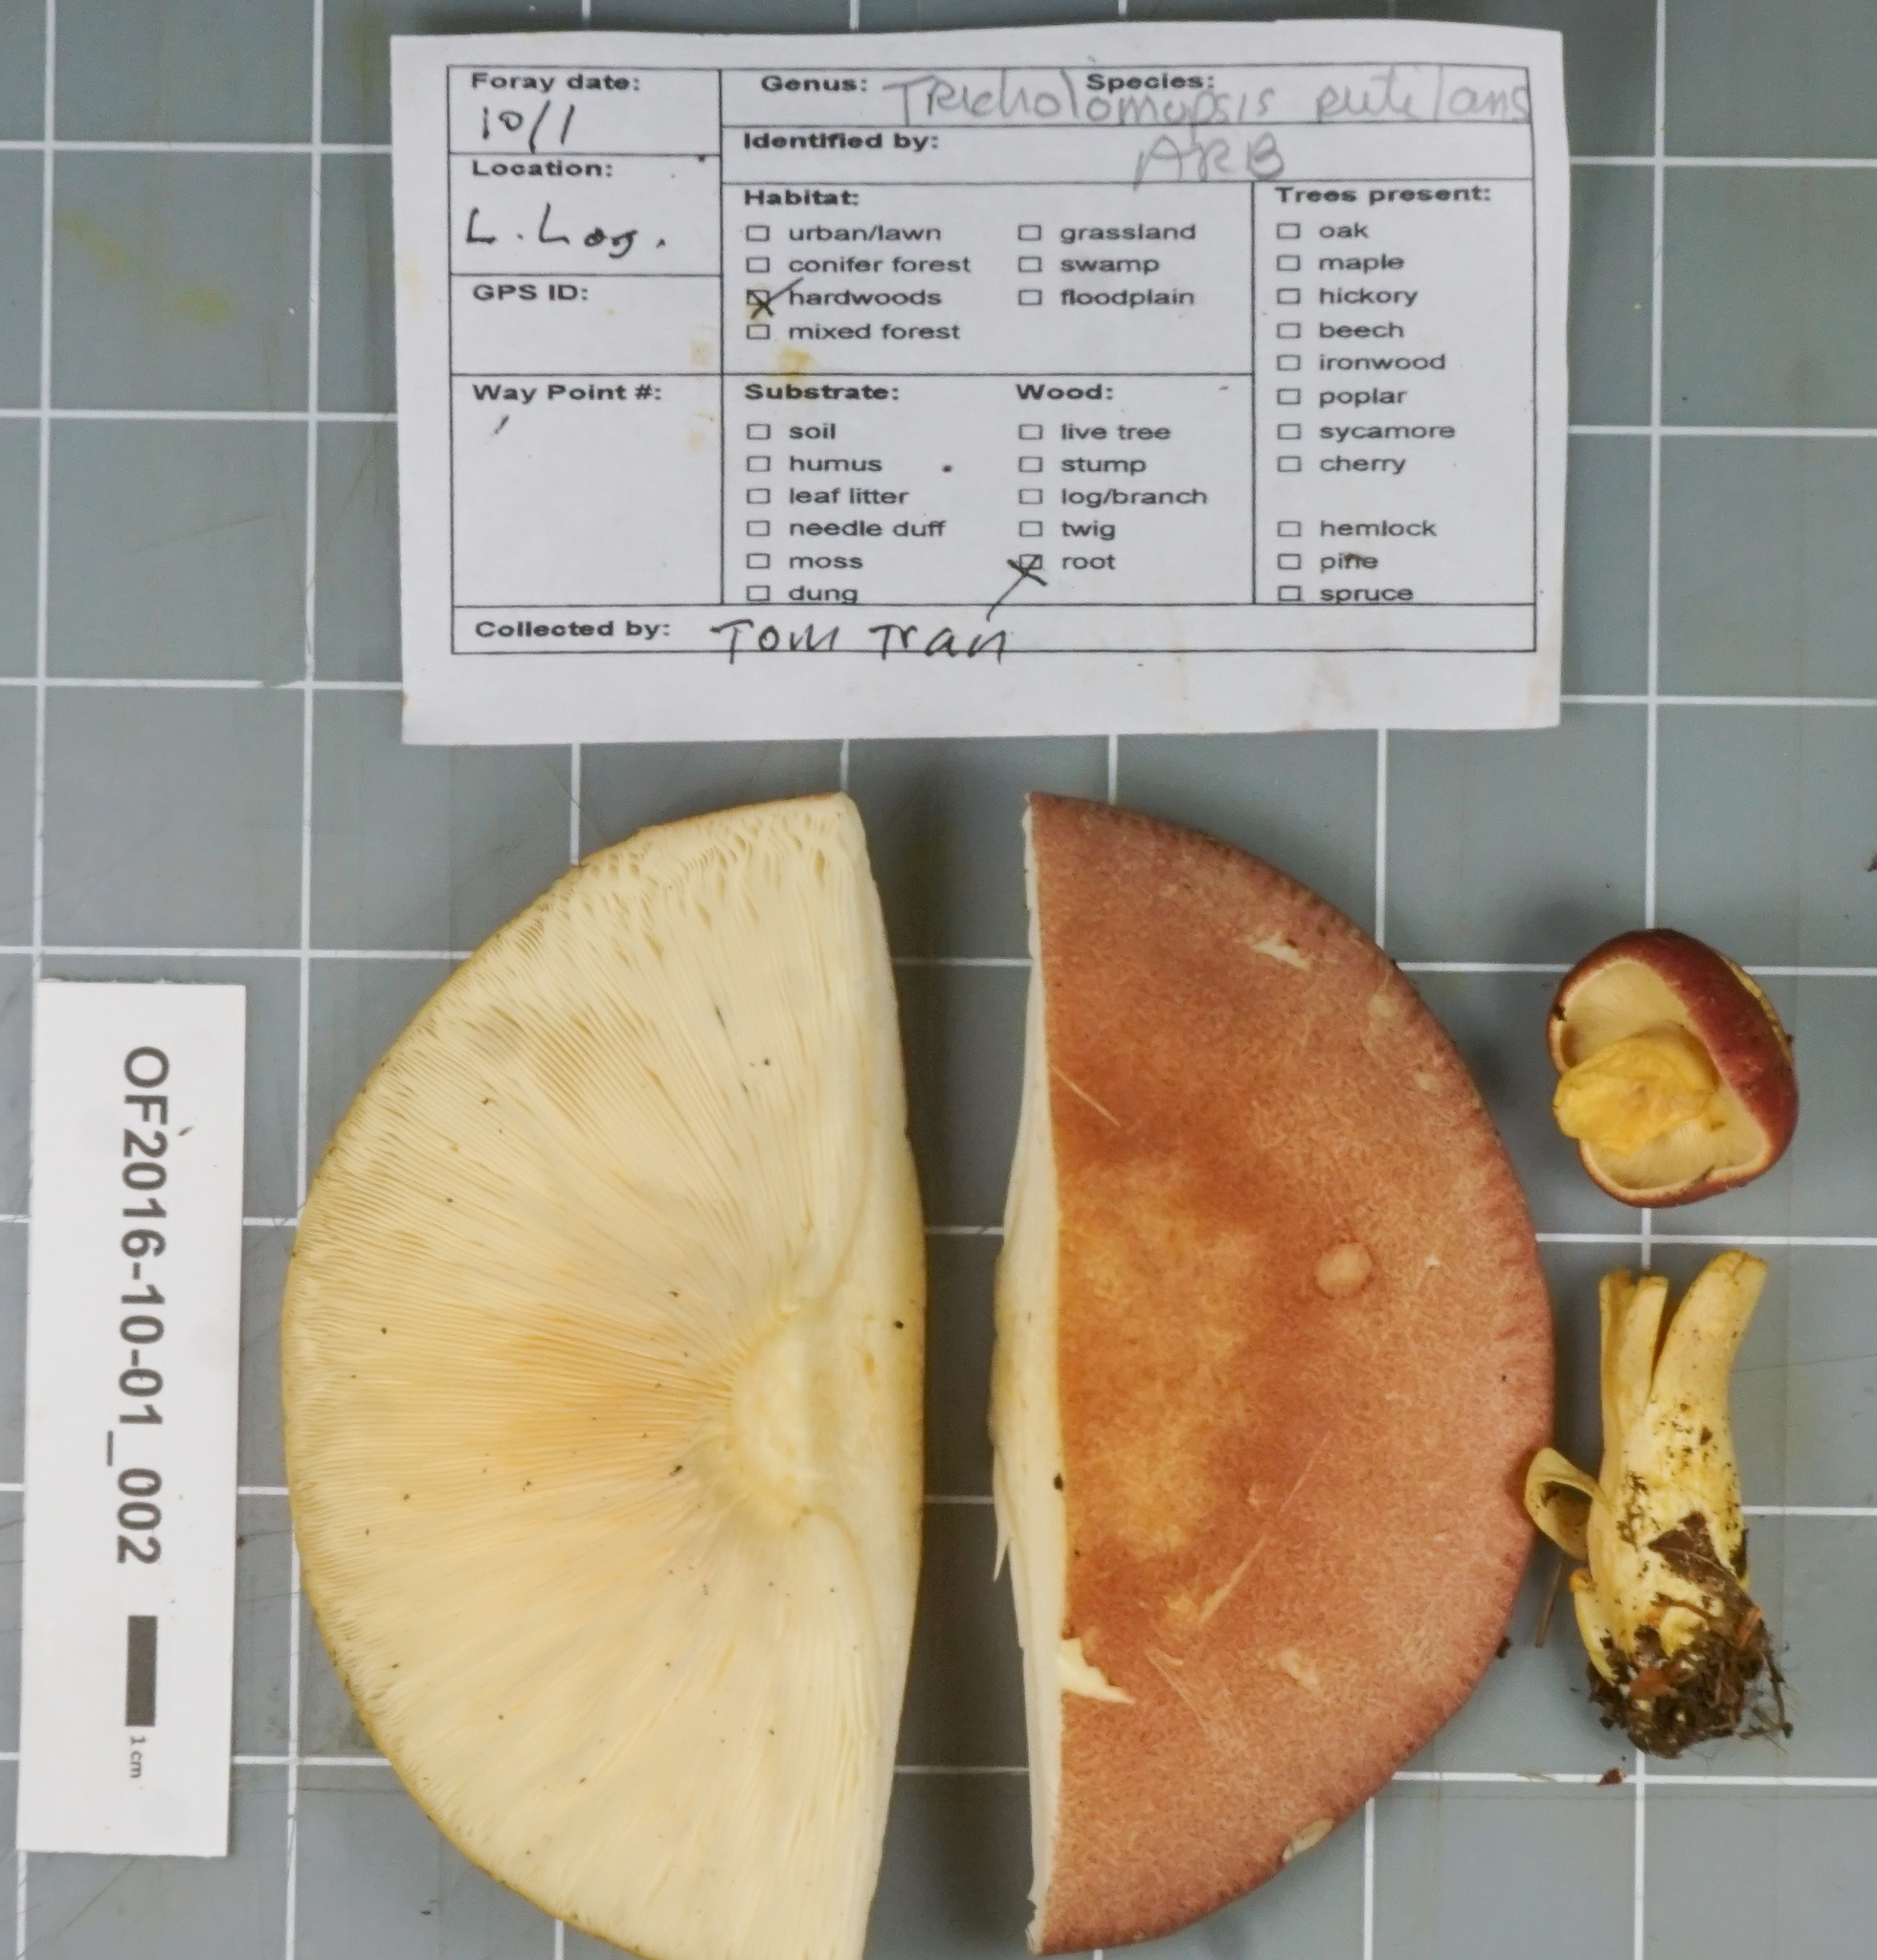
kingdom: Fungi
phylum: Basidiomycota
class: Agaricomycetes
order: Agaricales
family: Tricholomataceae
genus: Tricholomopsis
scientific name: Tricholomopsis rutilans
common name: Plums and custard
